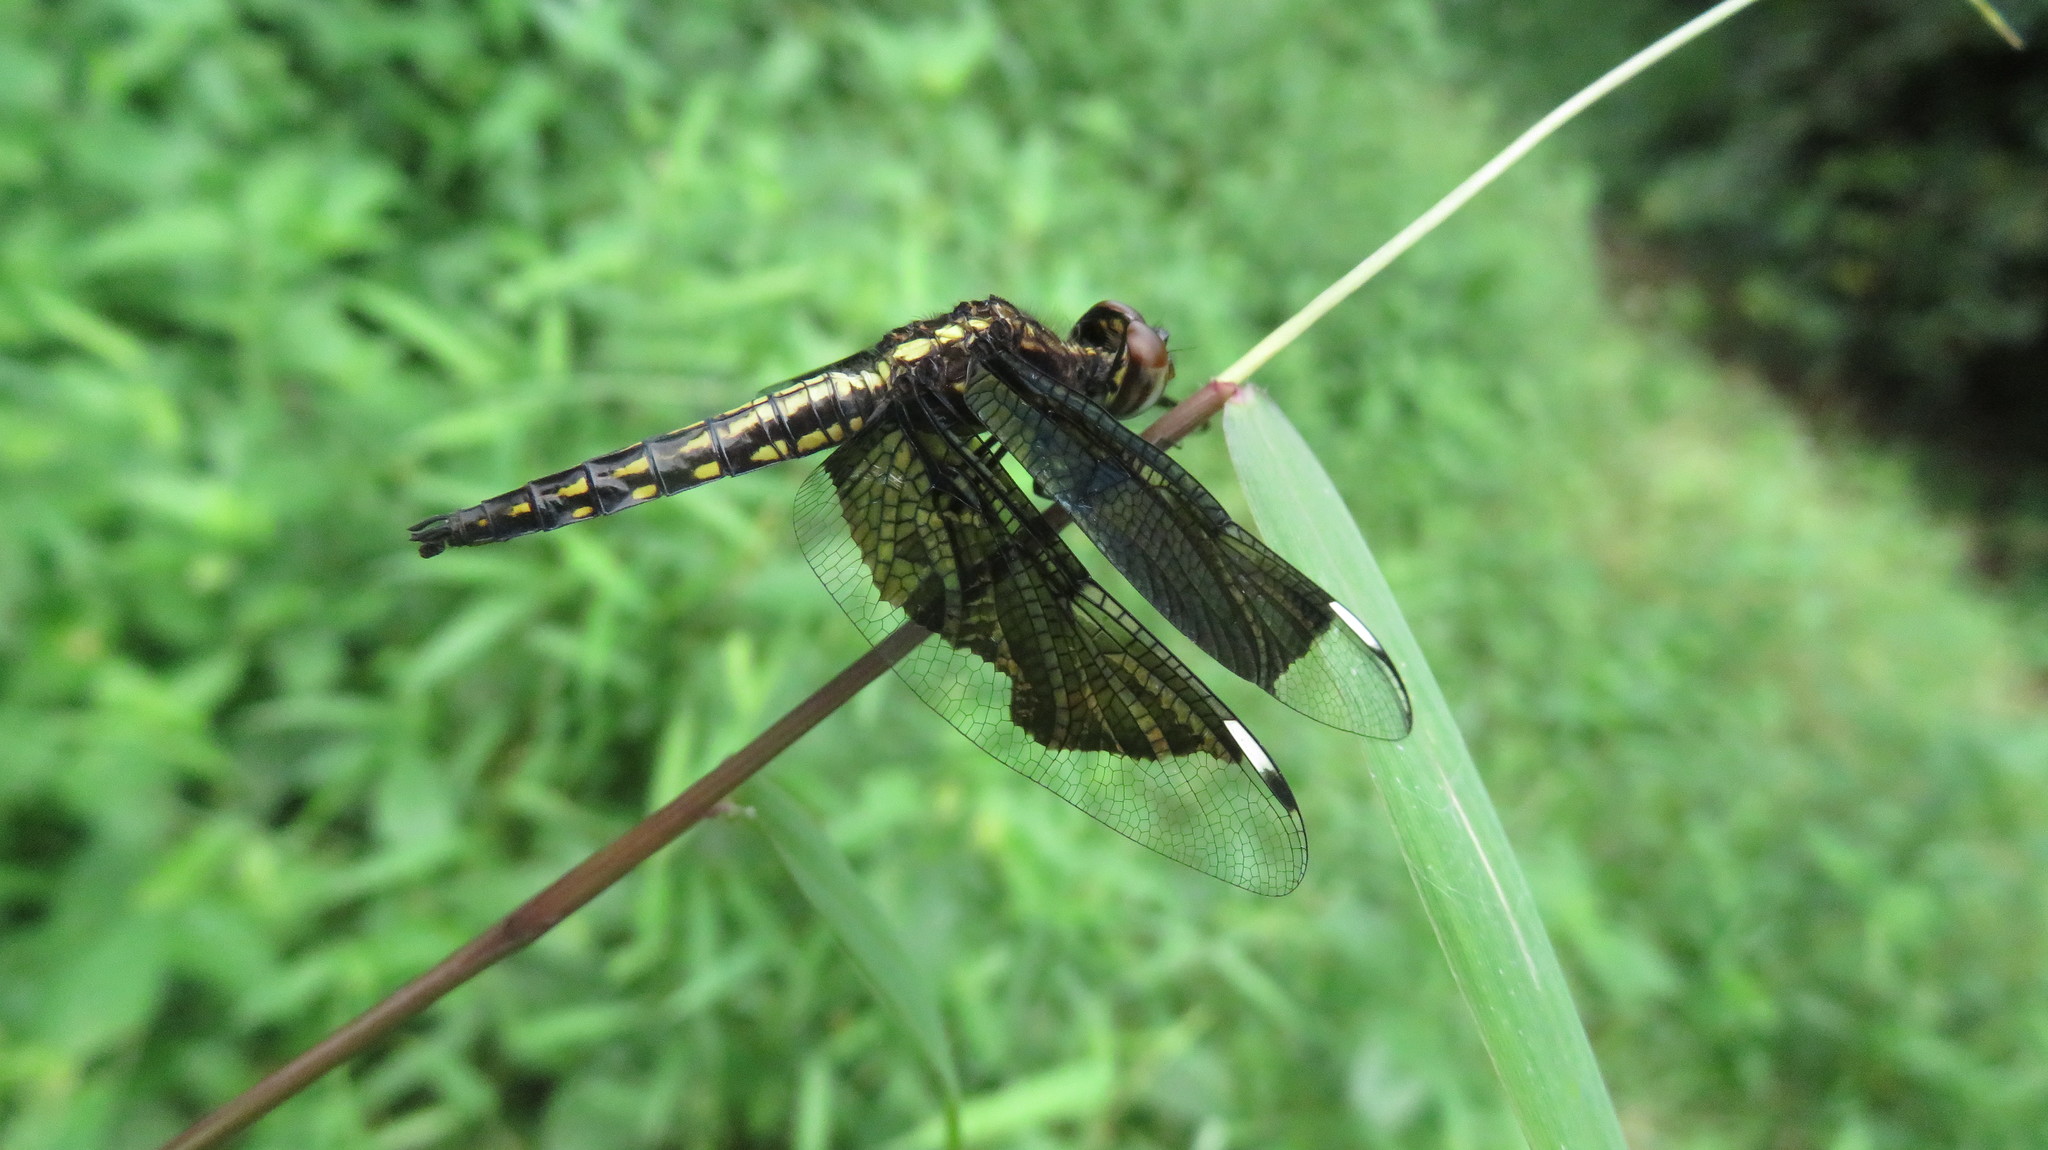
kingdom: Animalia
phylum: Arthropoda
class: Insecta
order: Odonata
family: Libellulidae
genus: Palpopleura
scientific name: Palpopleura lucia
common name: Lucia widow
